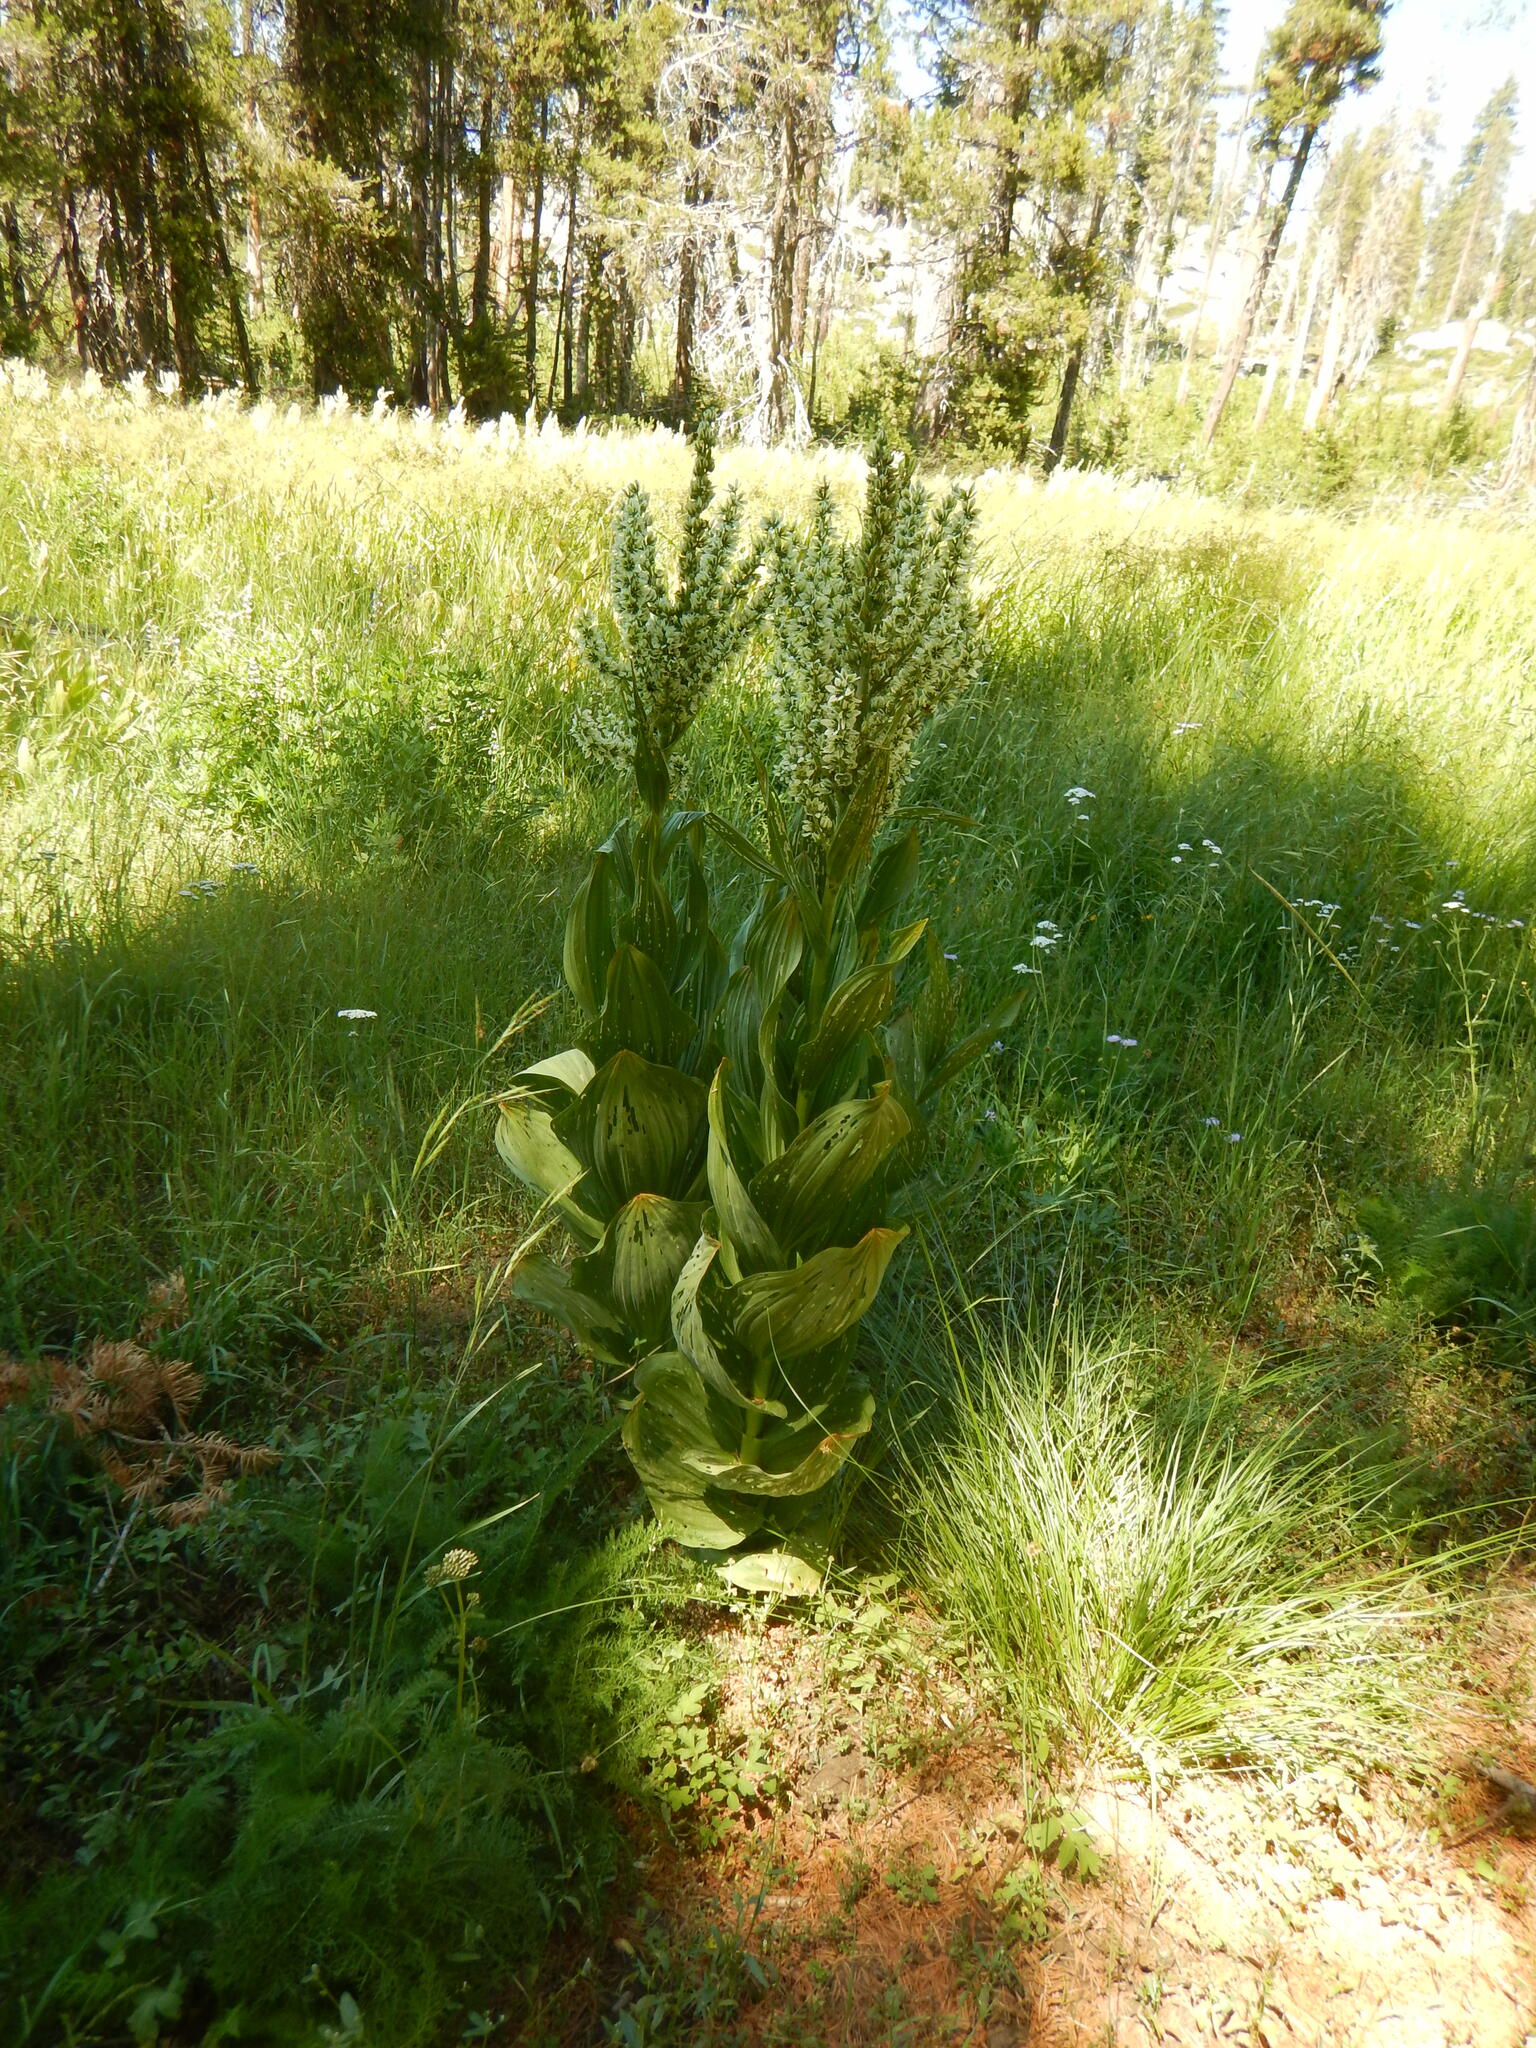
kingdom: Plantae
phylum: Tracheophyta
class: Liliopsida
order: Liliales
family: Melanthiaceae
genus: Veratrum
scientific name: Veratrum californicum
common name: California veratrum
